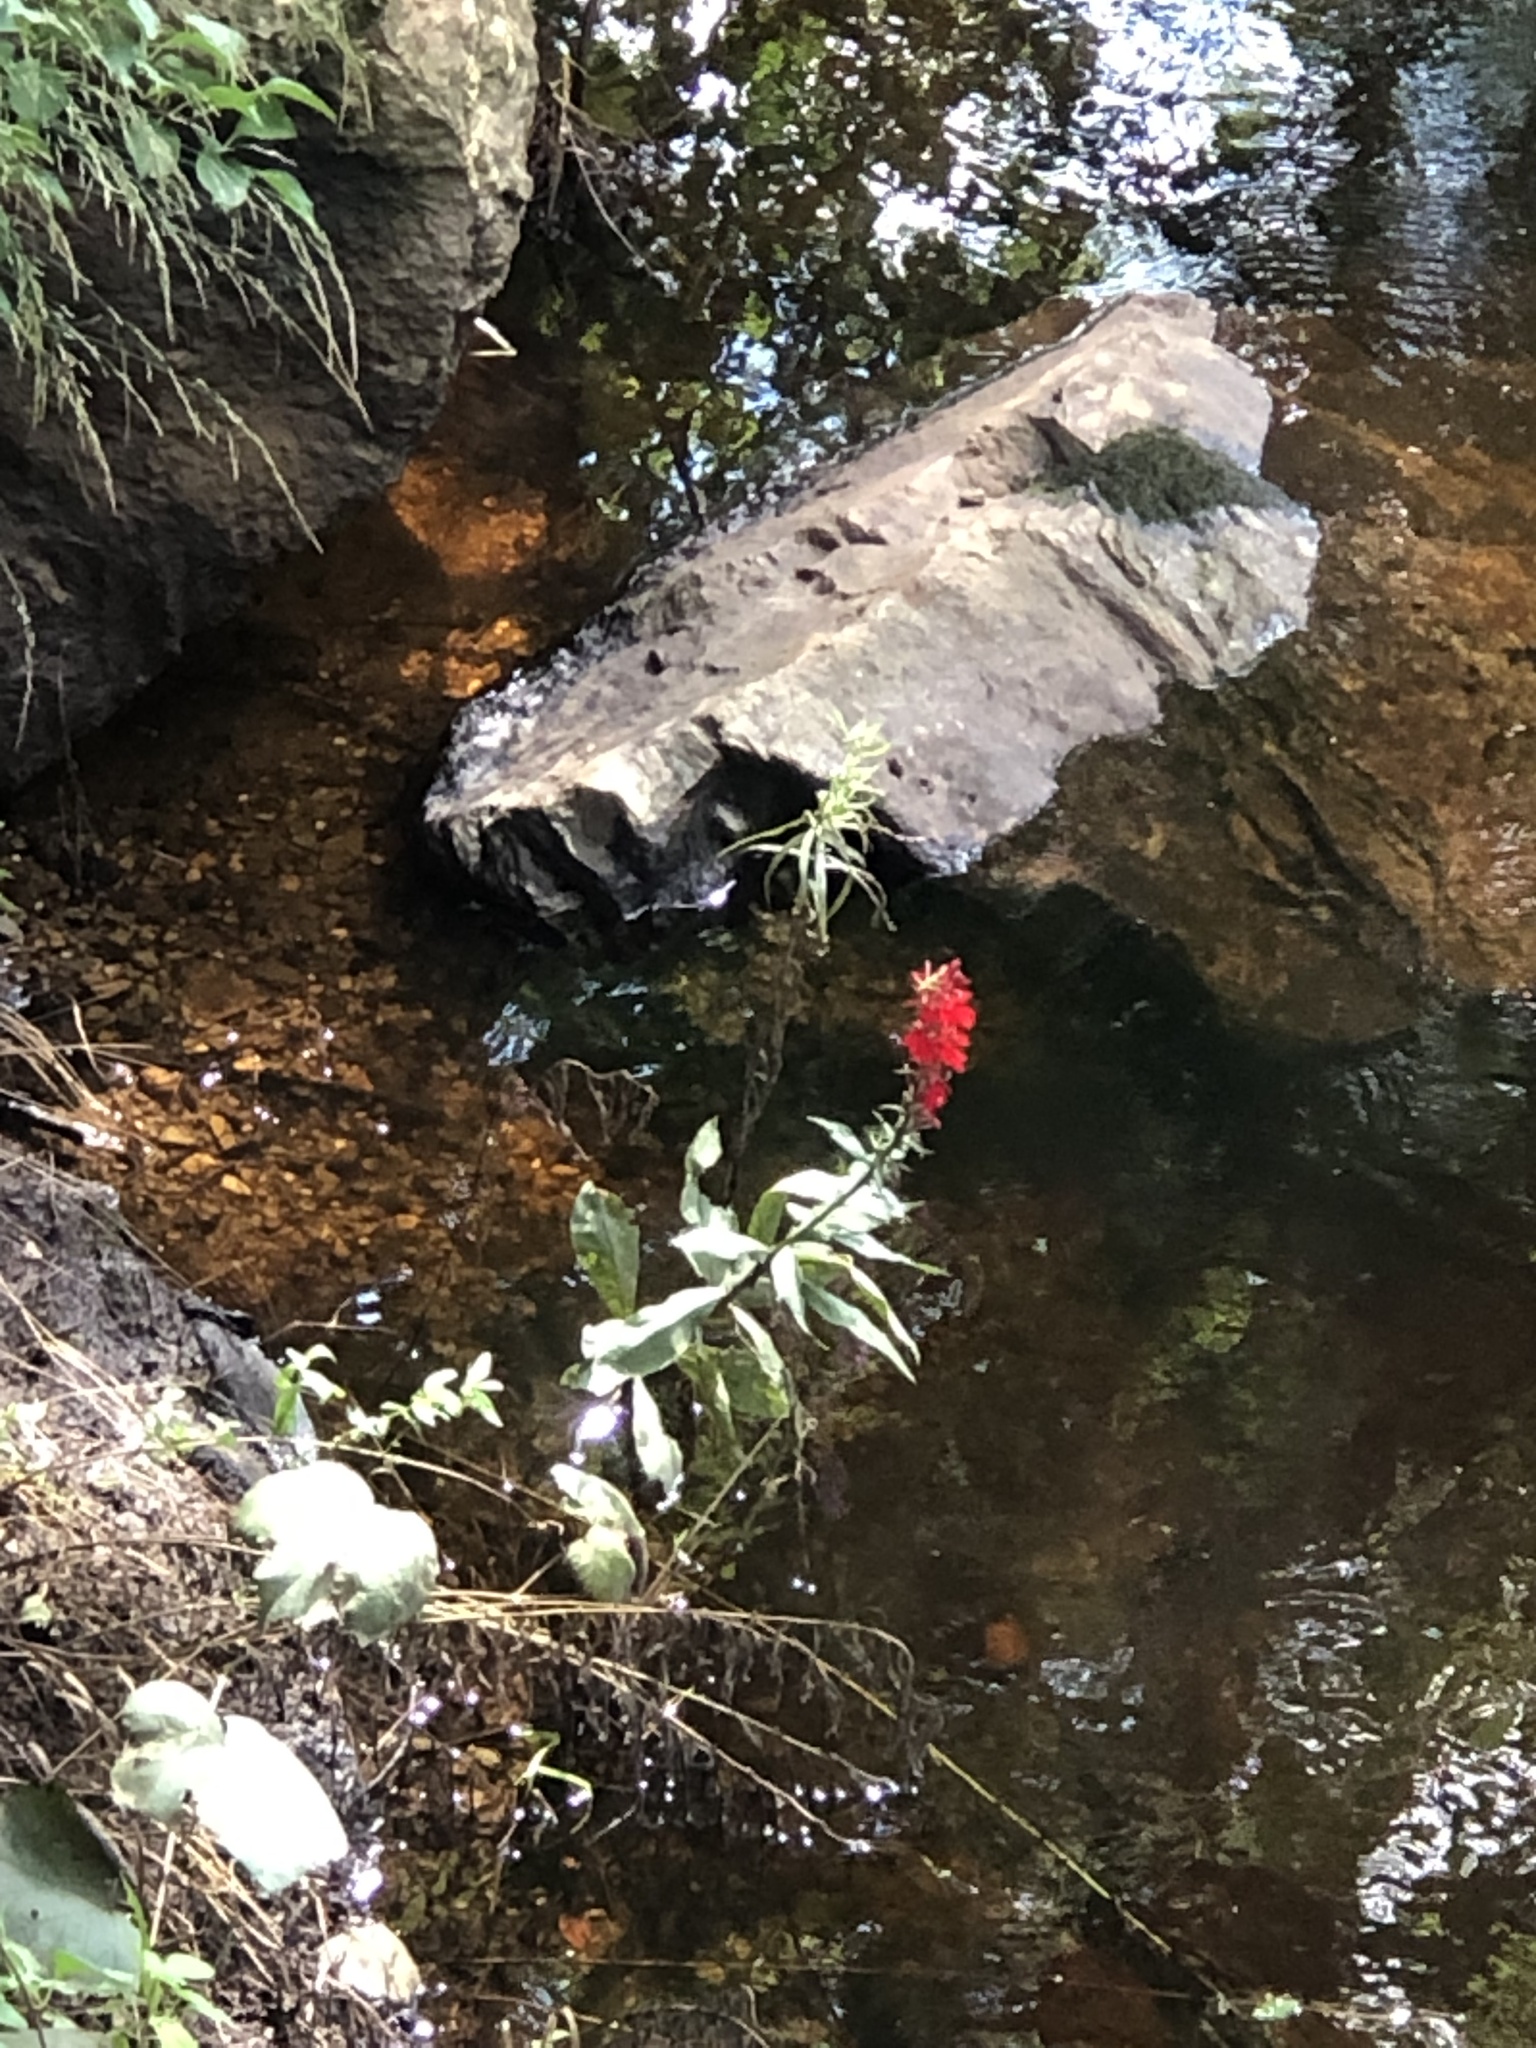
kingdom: Plantae
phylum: Tracheophyta
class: Magnoliopsida
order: Asterales
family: Campanulaceae
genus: Lobelia
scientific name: Lobelia cardinalis
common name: Cardinal flower
